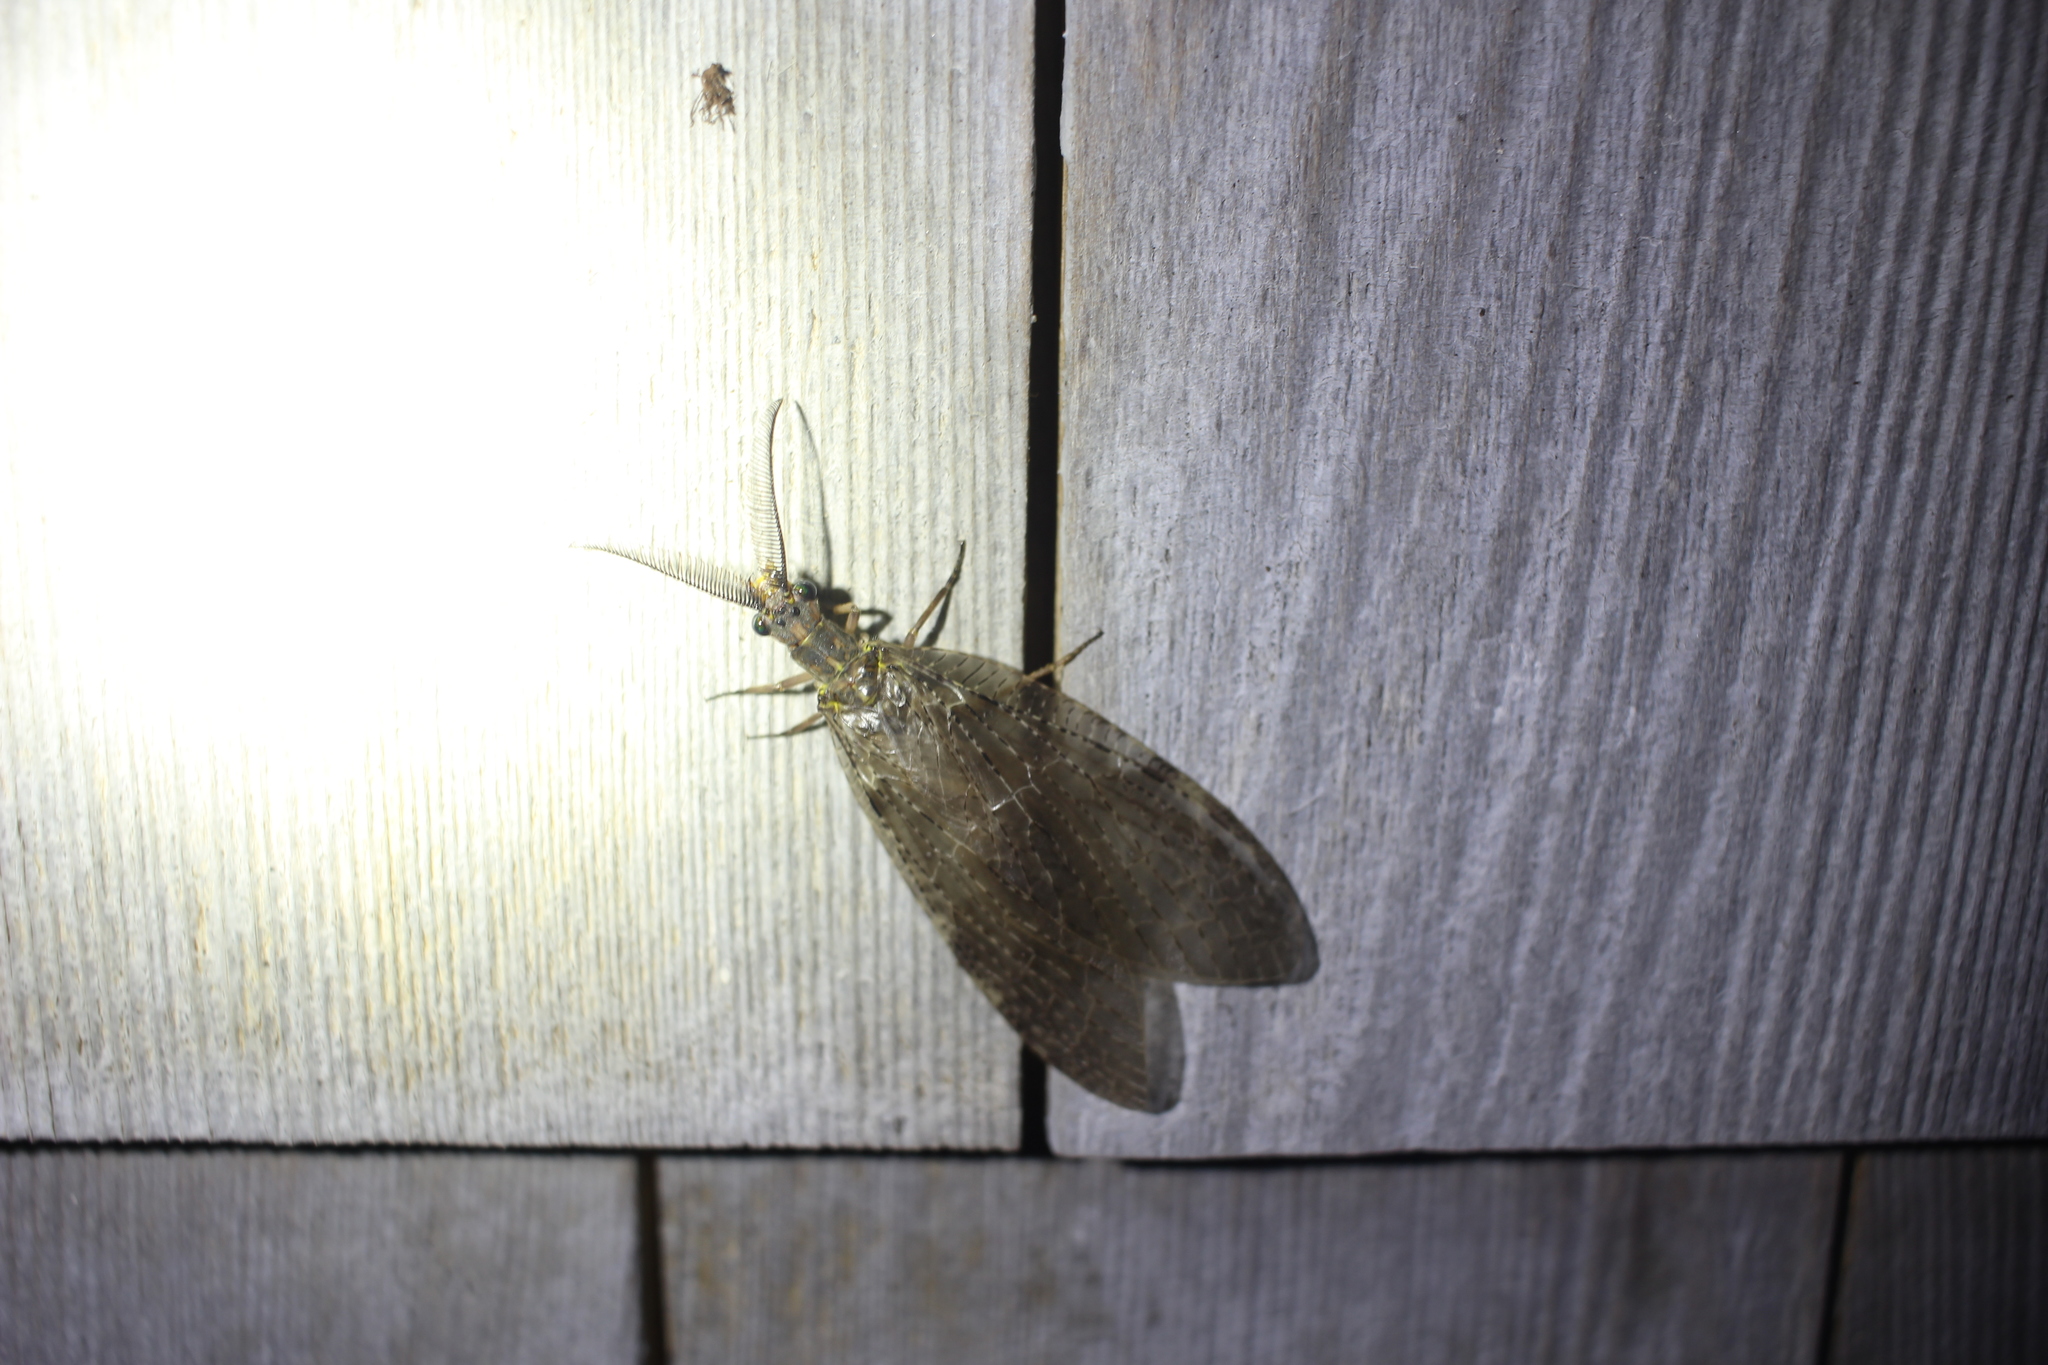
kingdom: Animalia
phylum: Arthropoda
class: Insecta
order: Megaloptera
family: Corydalidae
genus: Chauliodes
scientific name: Chauliodes pectinicornis
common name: Summer fishfly
